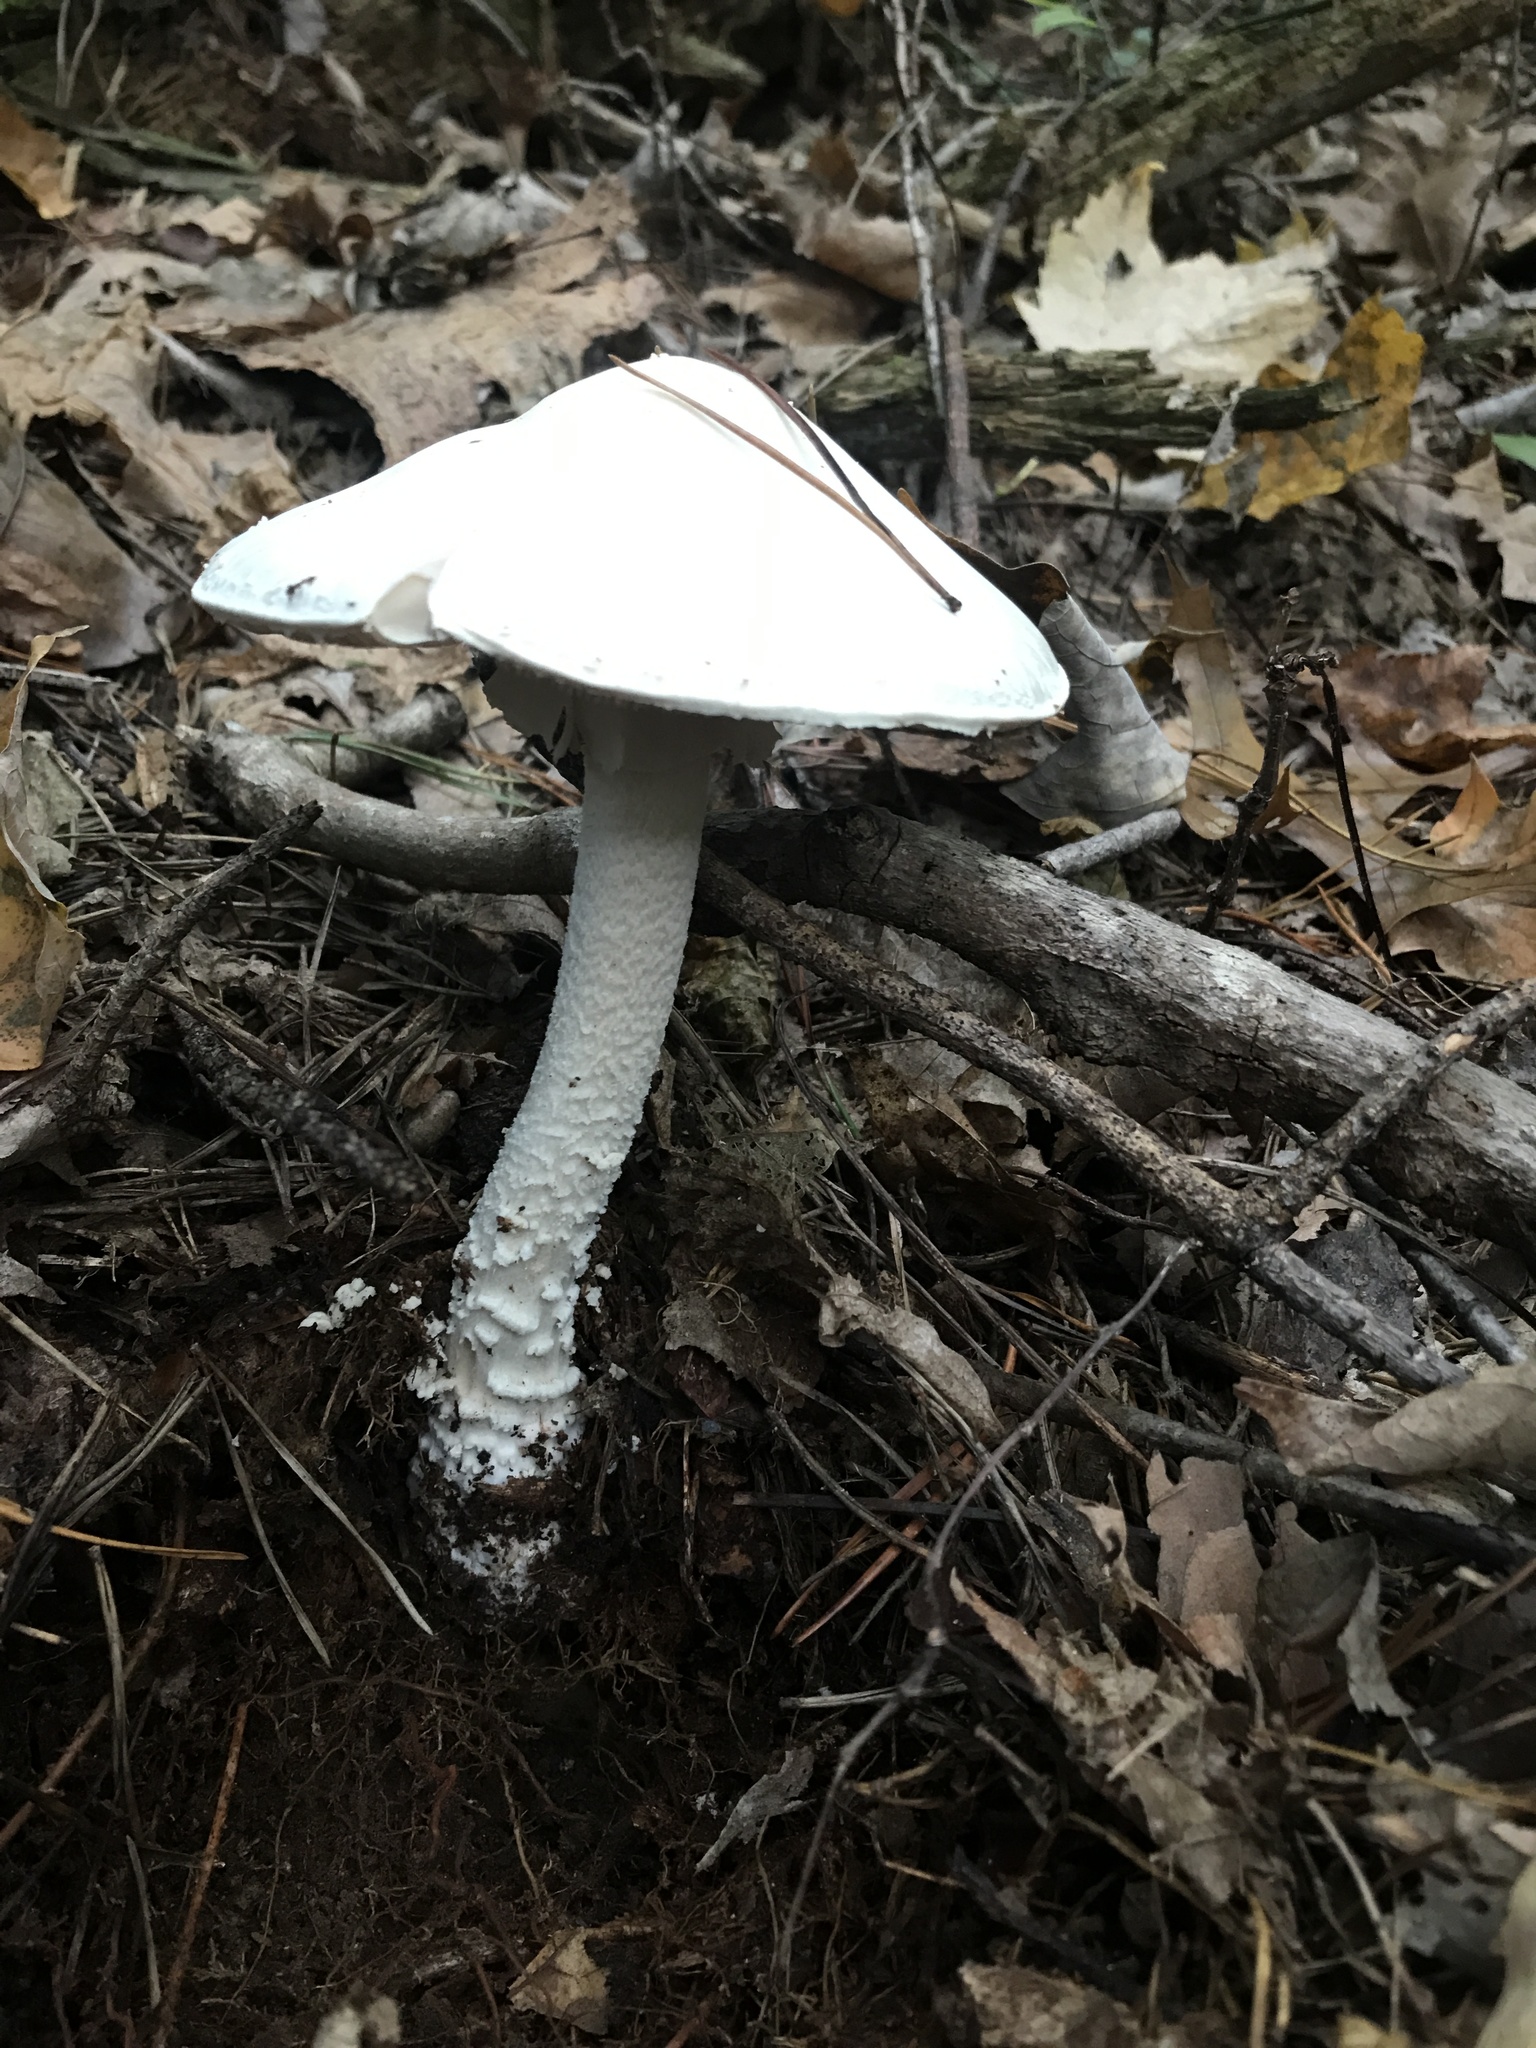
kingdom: Fungi
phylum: Basidiomycota
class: Agaricomycetes
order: Agaricales
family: Amanitaceae
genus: Amanita
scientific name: Amanita hygroscopica
